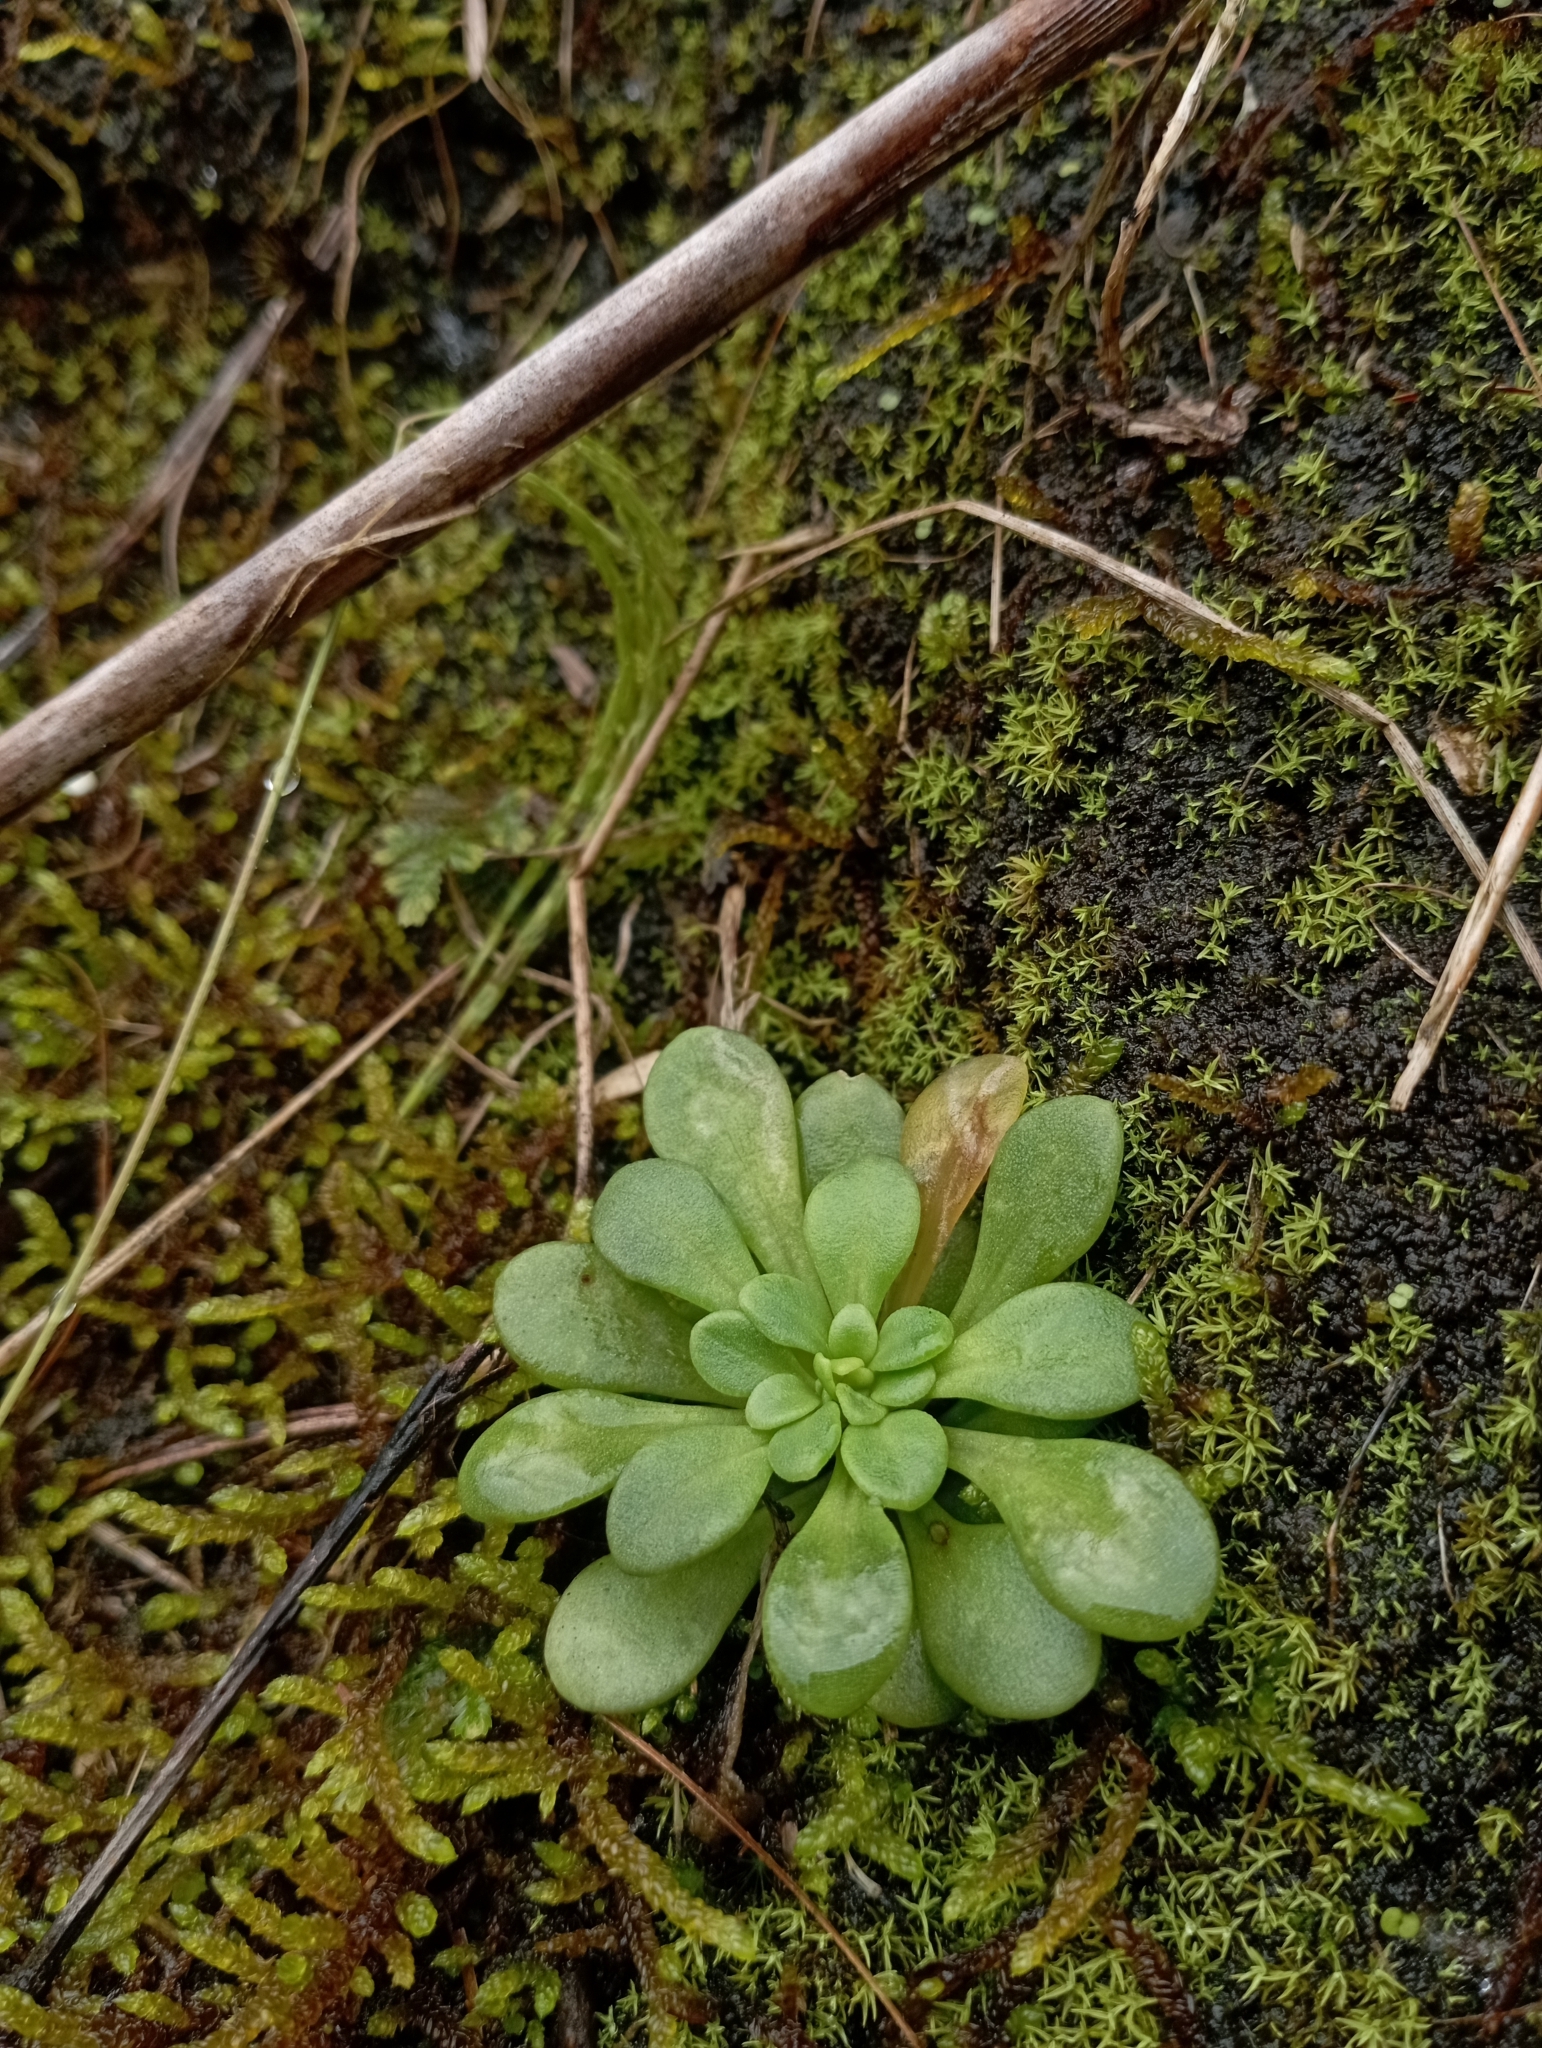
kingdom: Plantae
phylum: Tracheophyta
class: Magnoliopsida
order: Saxifragales
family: Crassulaceae
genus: Sedum
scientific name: Sedum formosanum
